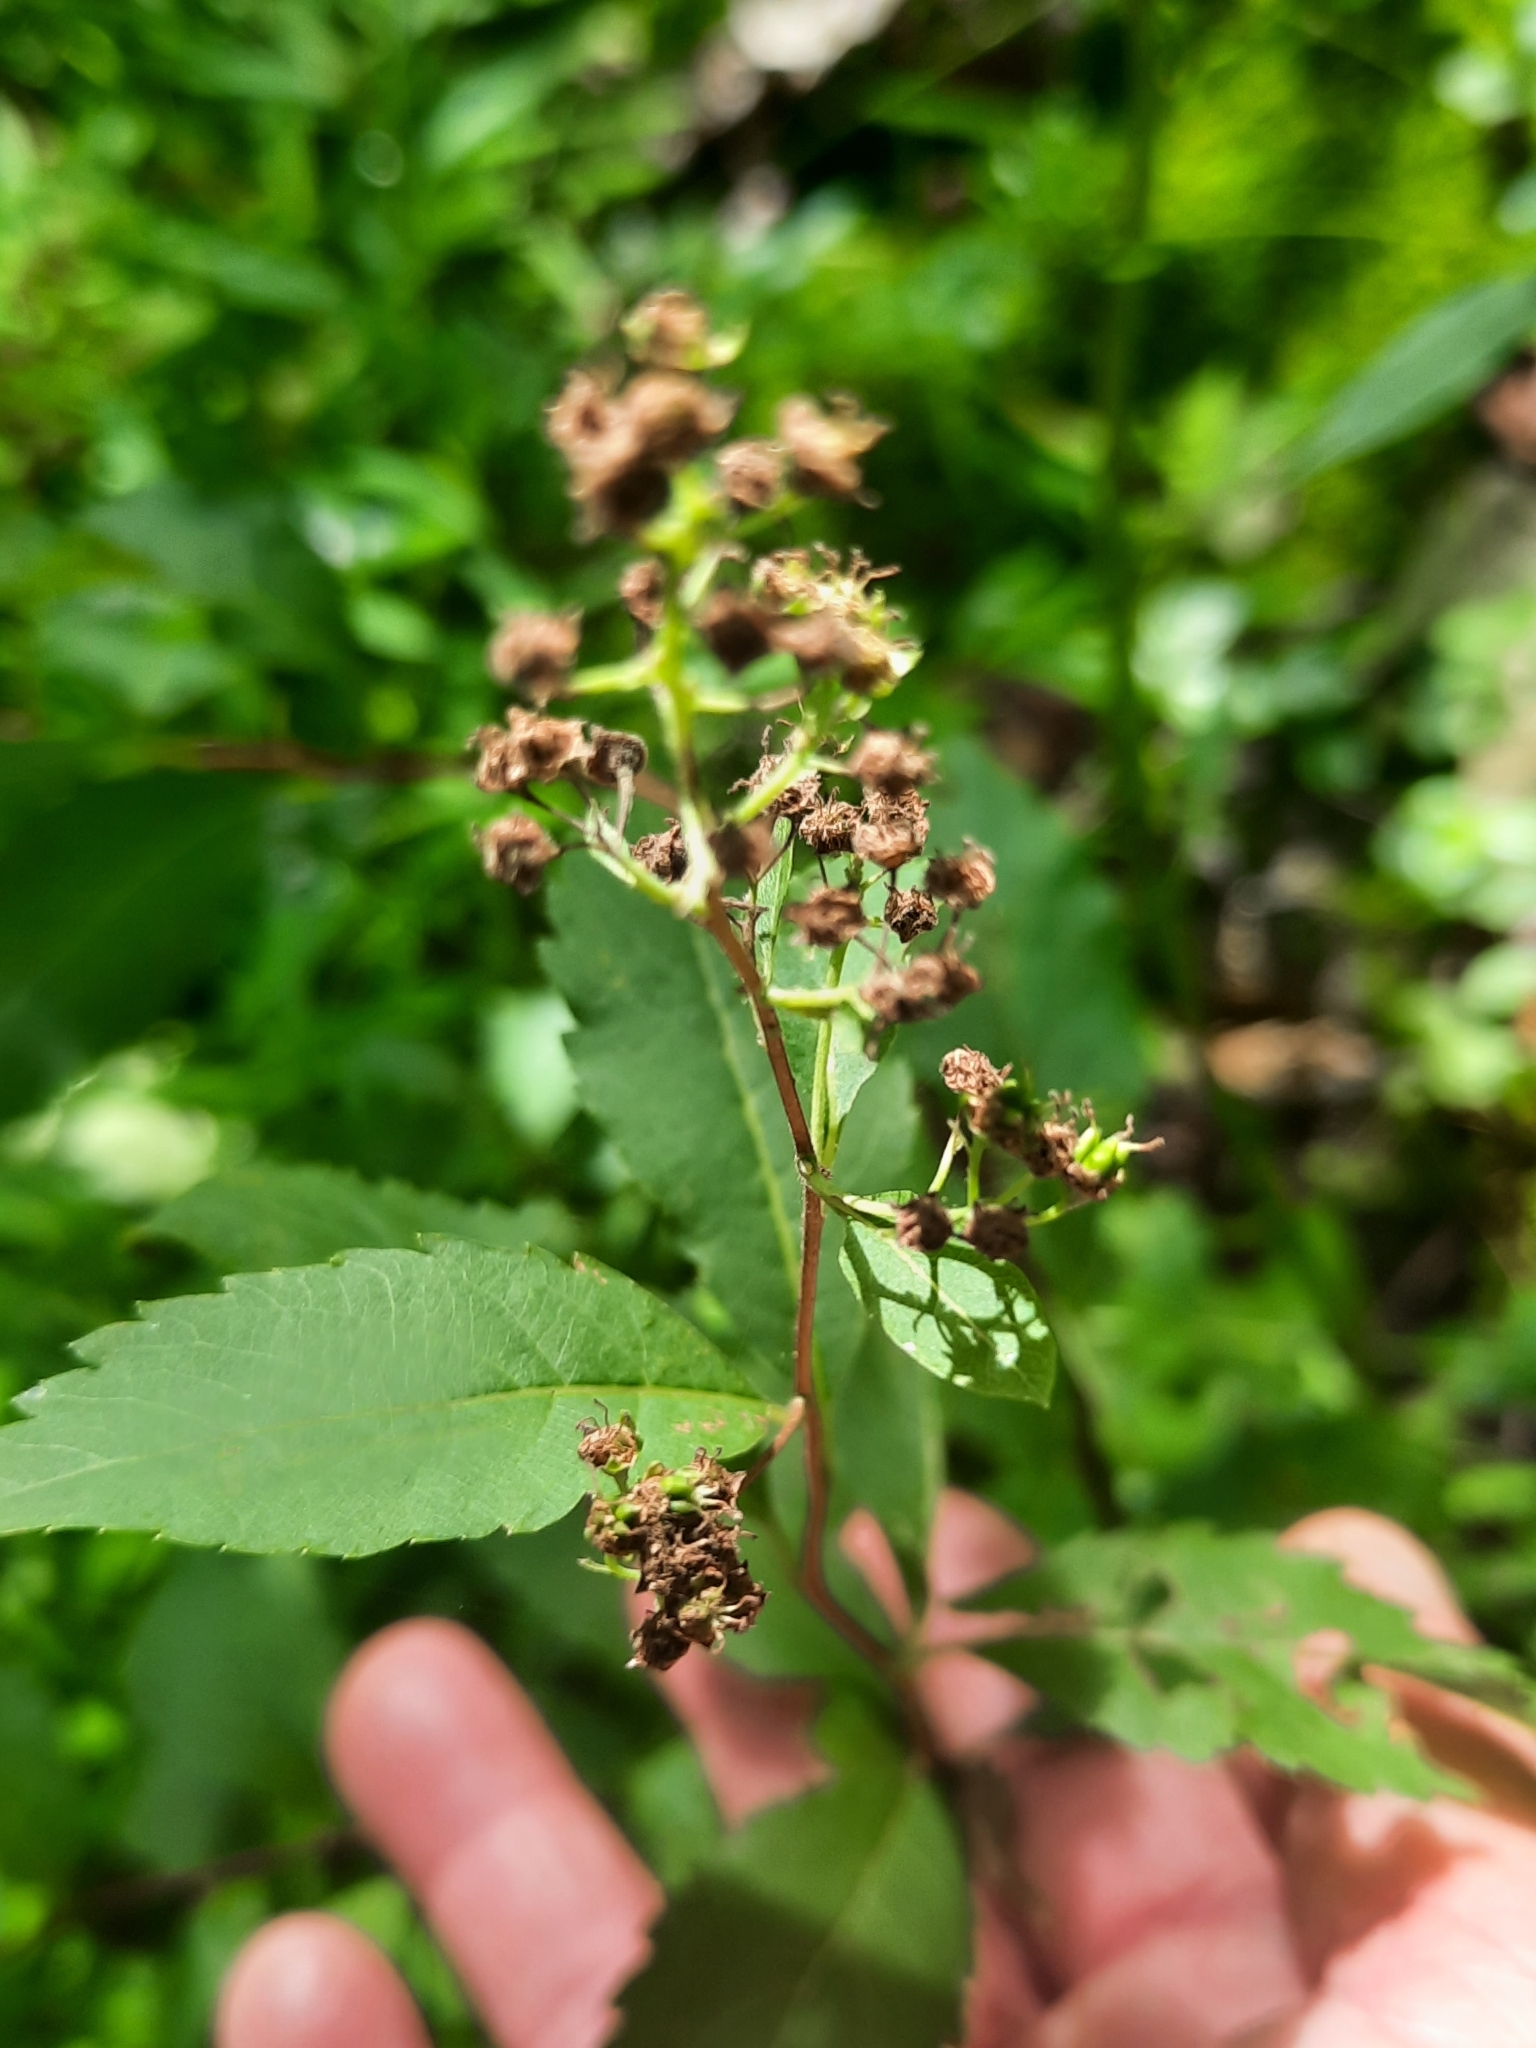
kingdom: Plantae
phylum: Tracheophyta
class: Magnoliopsida
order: Rosales
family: Rosaceae
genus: Spiraea
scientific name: Spiraea alba
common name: Pale bridewort
